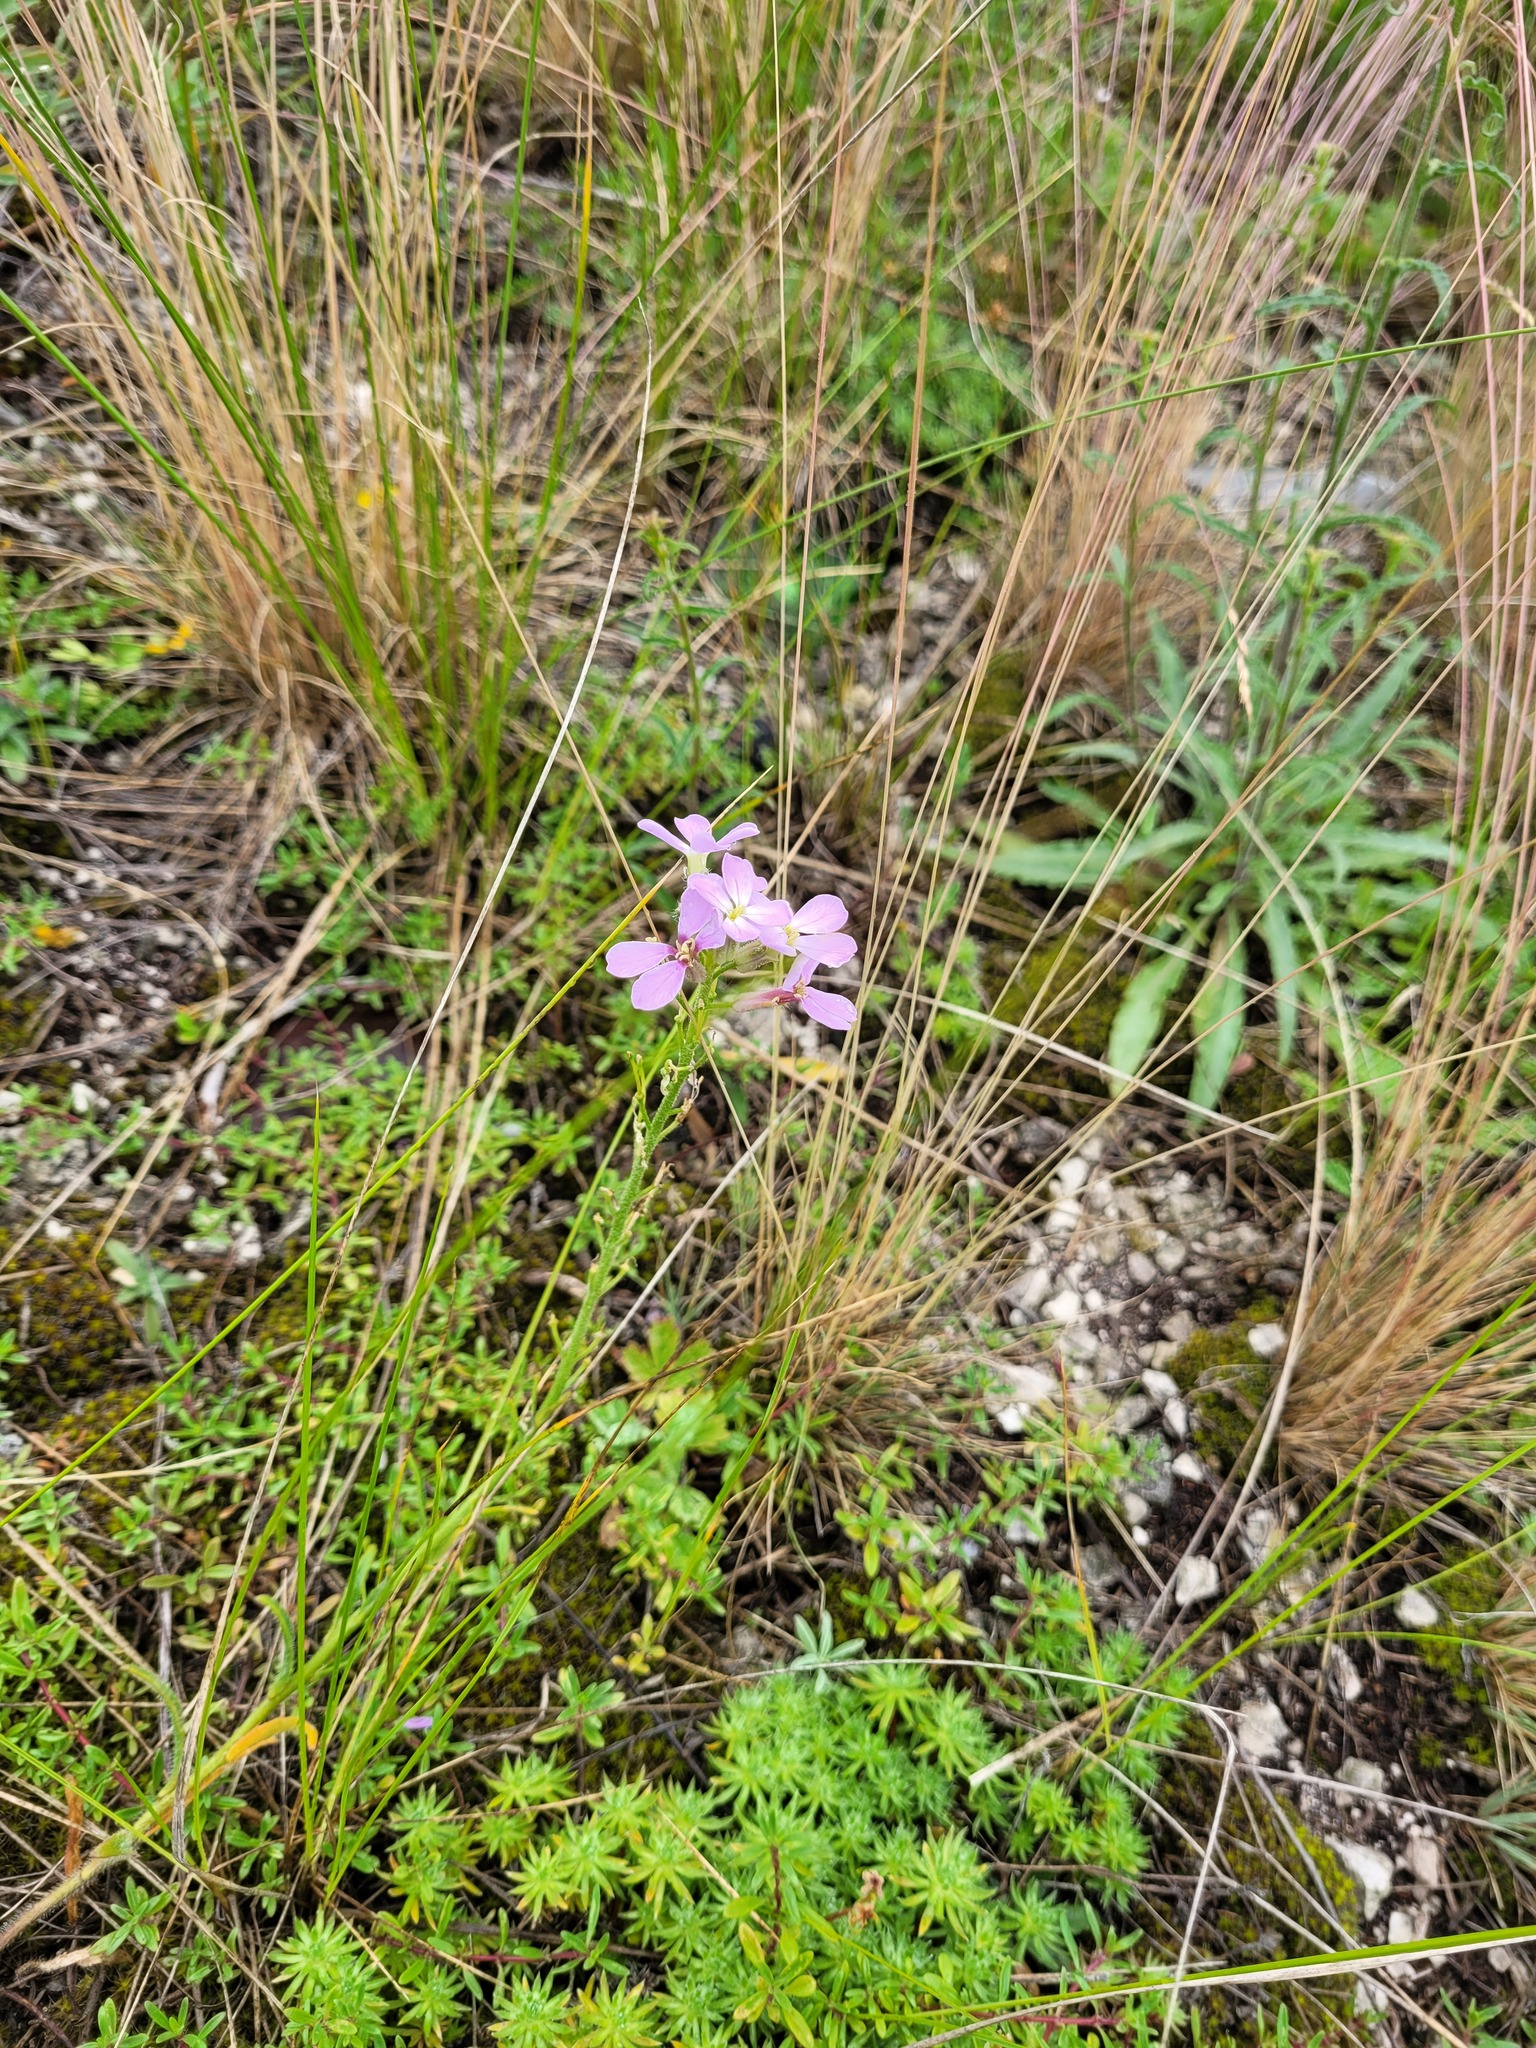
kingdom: Plantae
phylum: Tracheophyta
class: Magnoliopsida
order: Brassicales
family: Brassicaceae
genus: Clausia
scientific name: Clausia aprica
